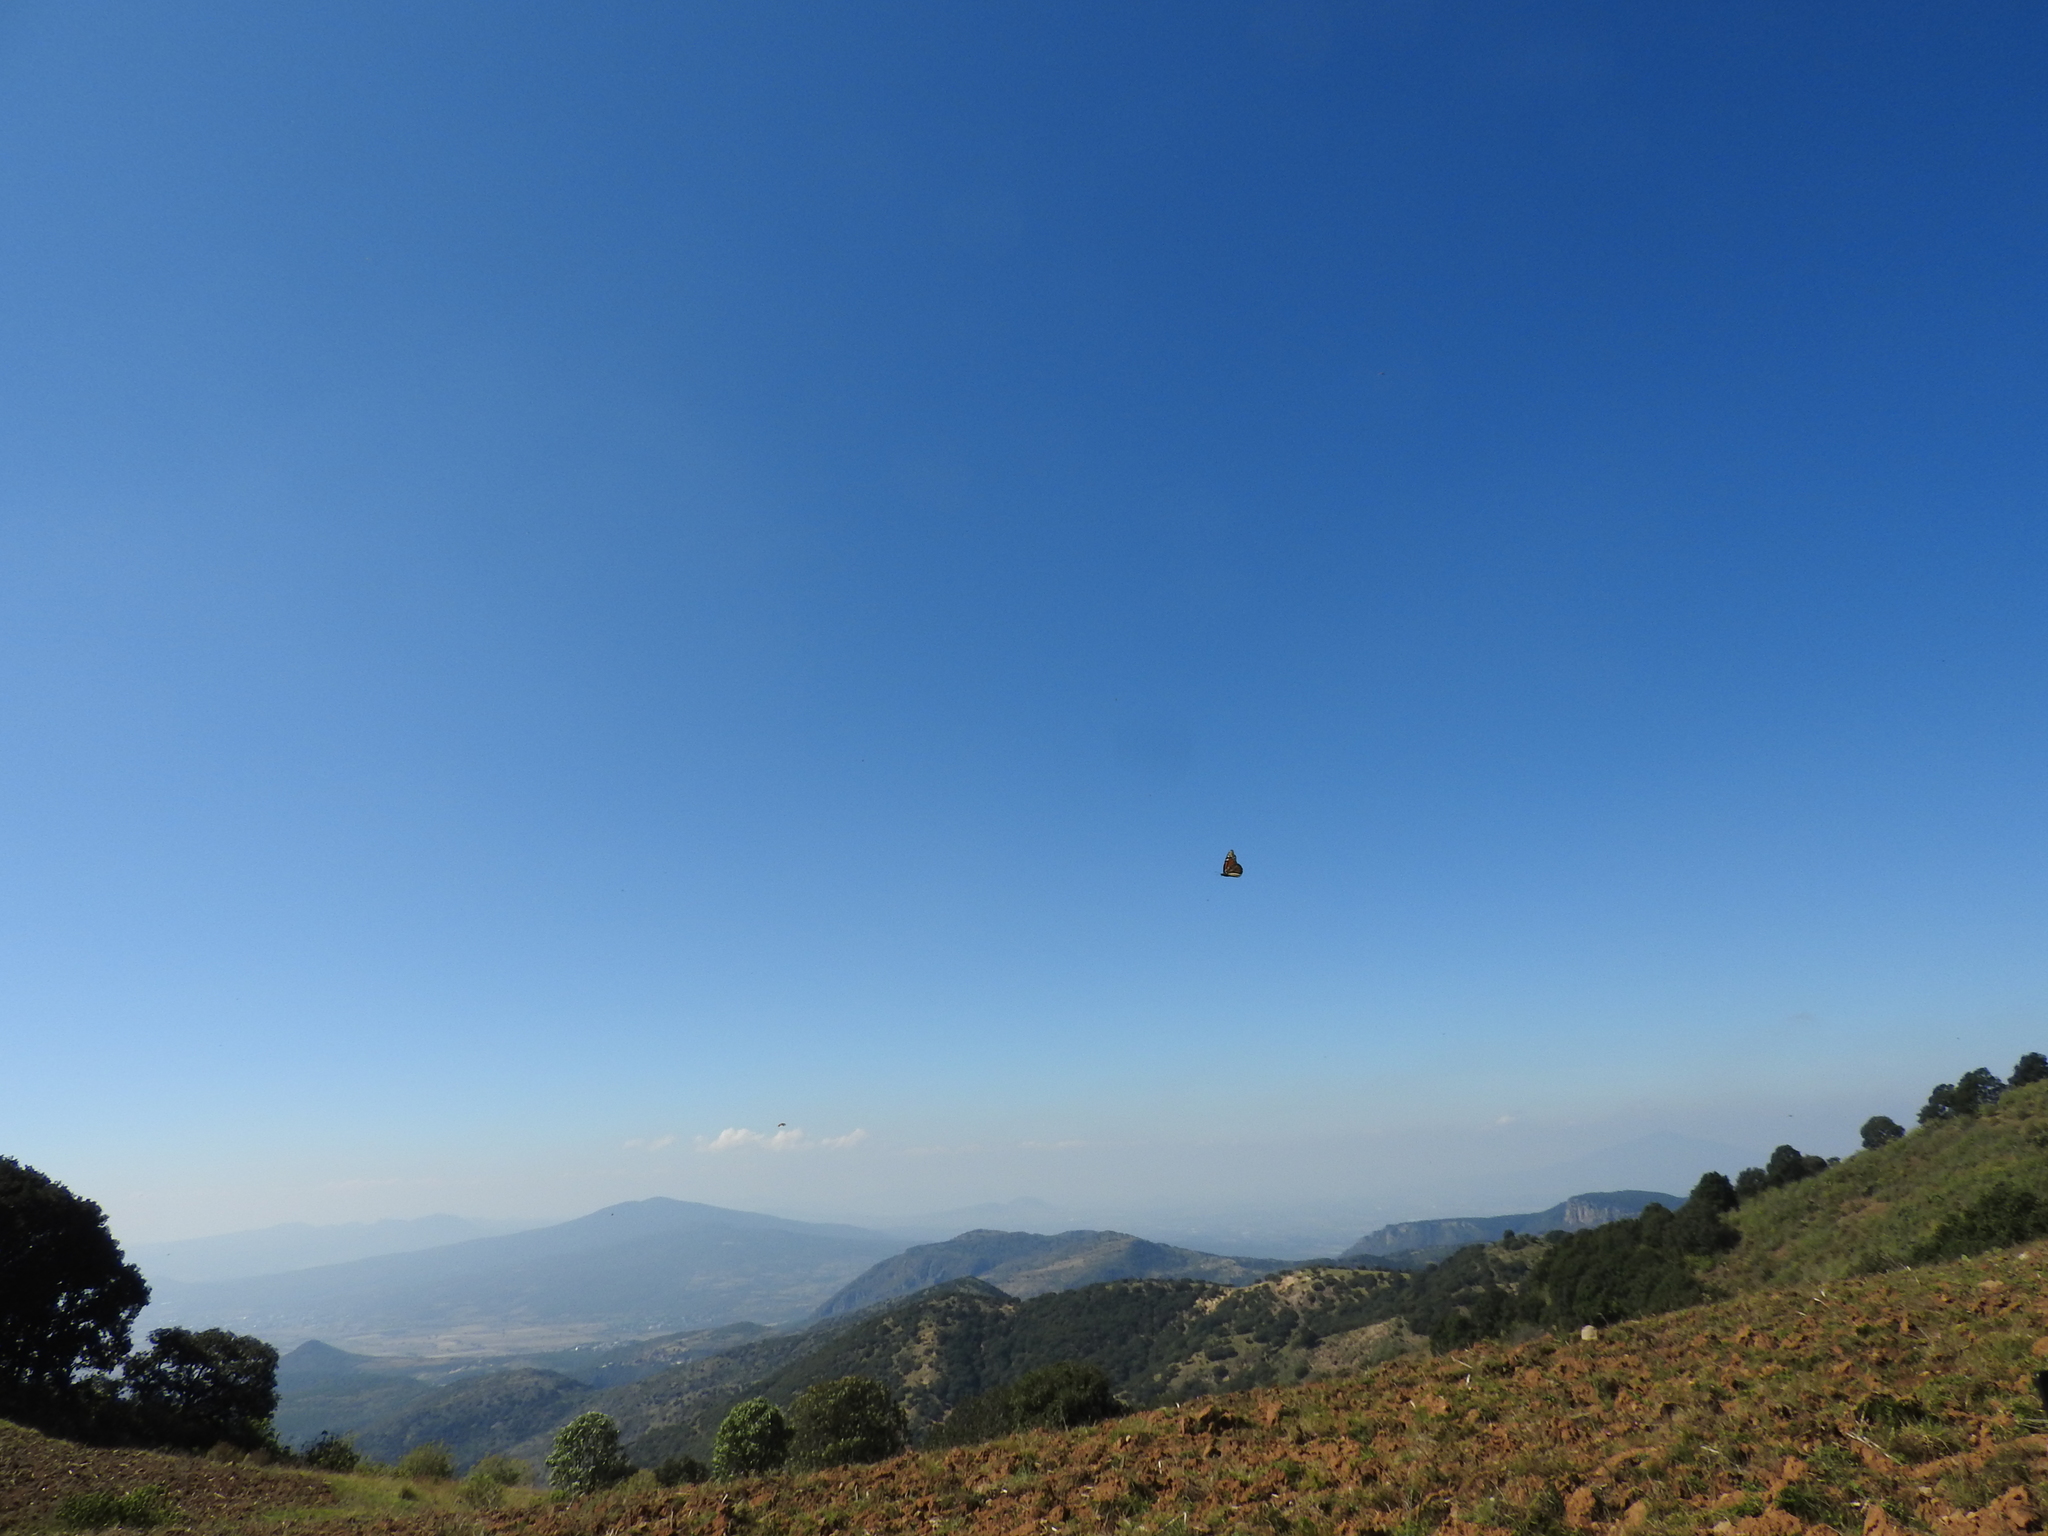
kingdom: Animalia
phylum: Arthropoda
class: Insecta
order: Lepidoptera
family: Nymphalidae
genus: Danaus
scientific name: Danaus plexippus
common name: Monarch
